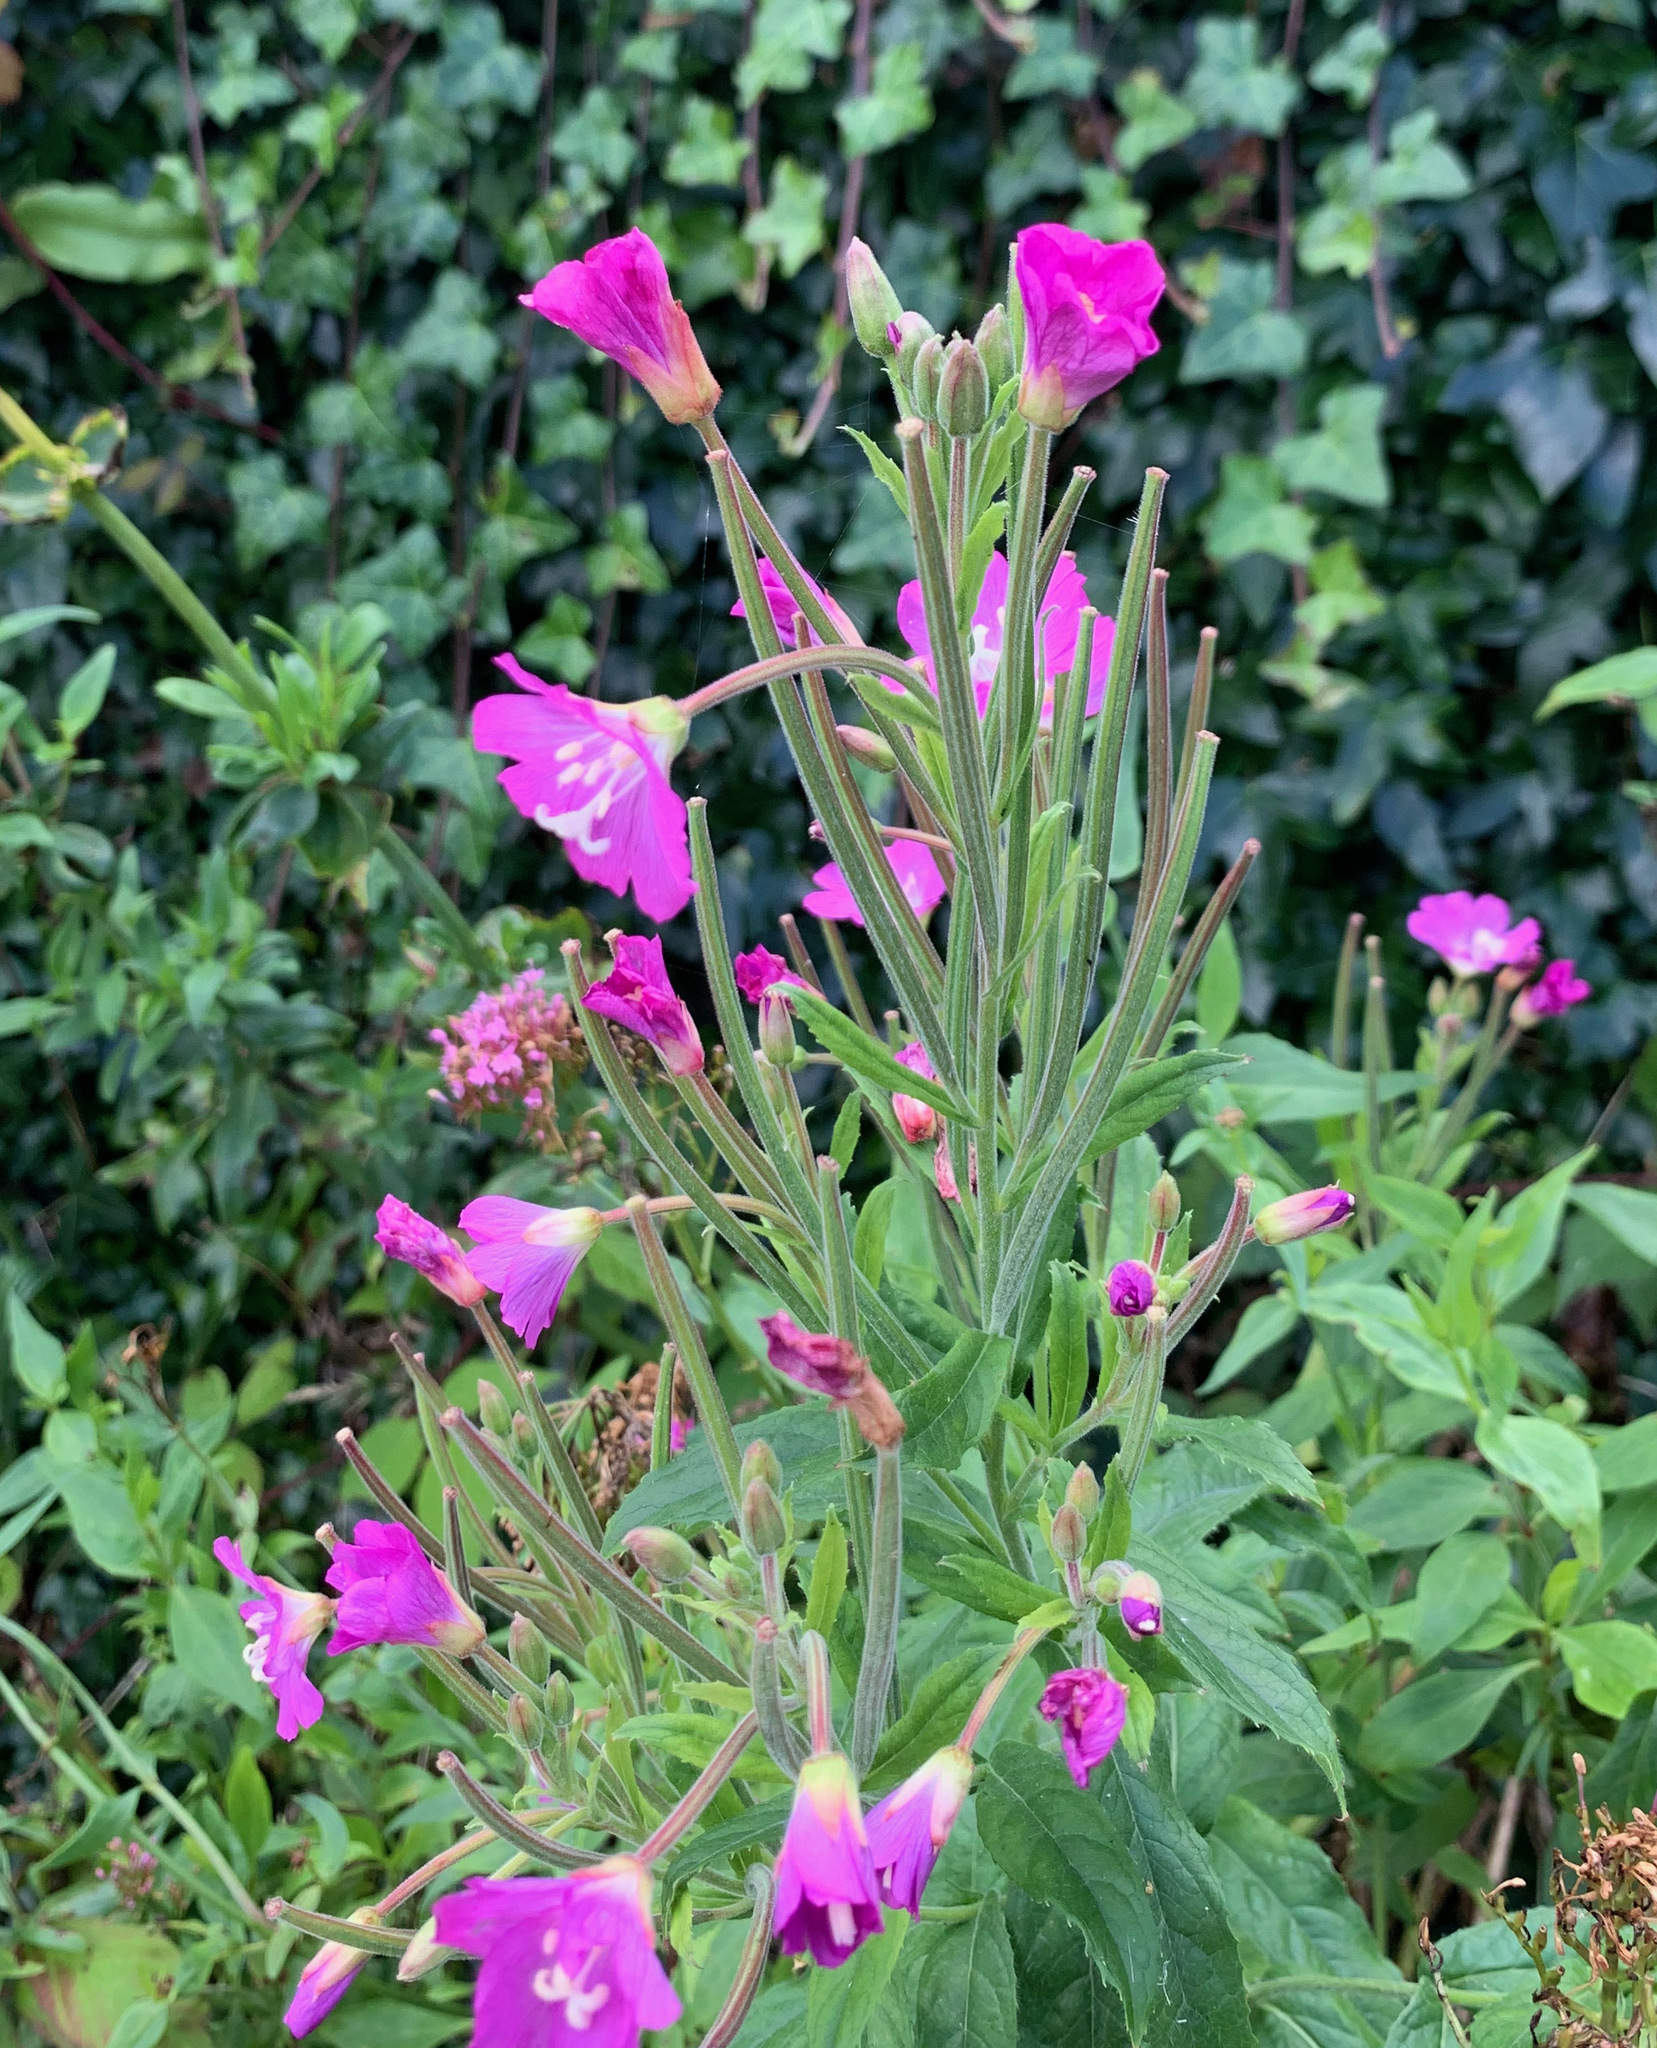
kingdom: Plantae
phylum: Tracheophyta
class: Magnoliopsida
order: Myrtales
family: Onagraceae
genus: Epilobium
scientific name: Epilobium hirsutum
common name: Great willowherb
